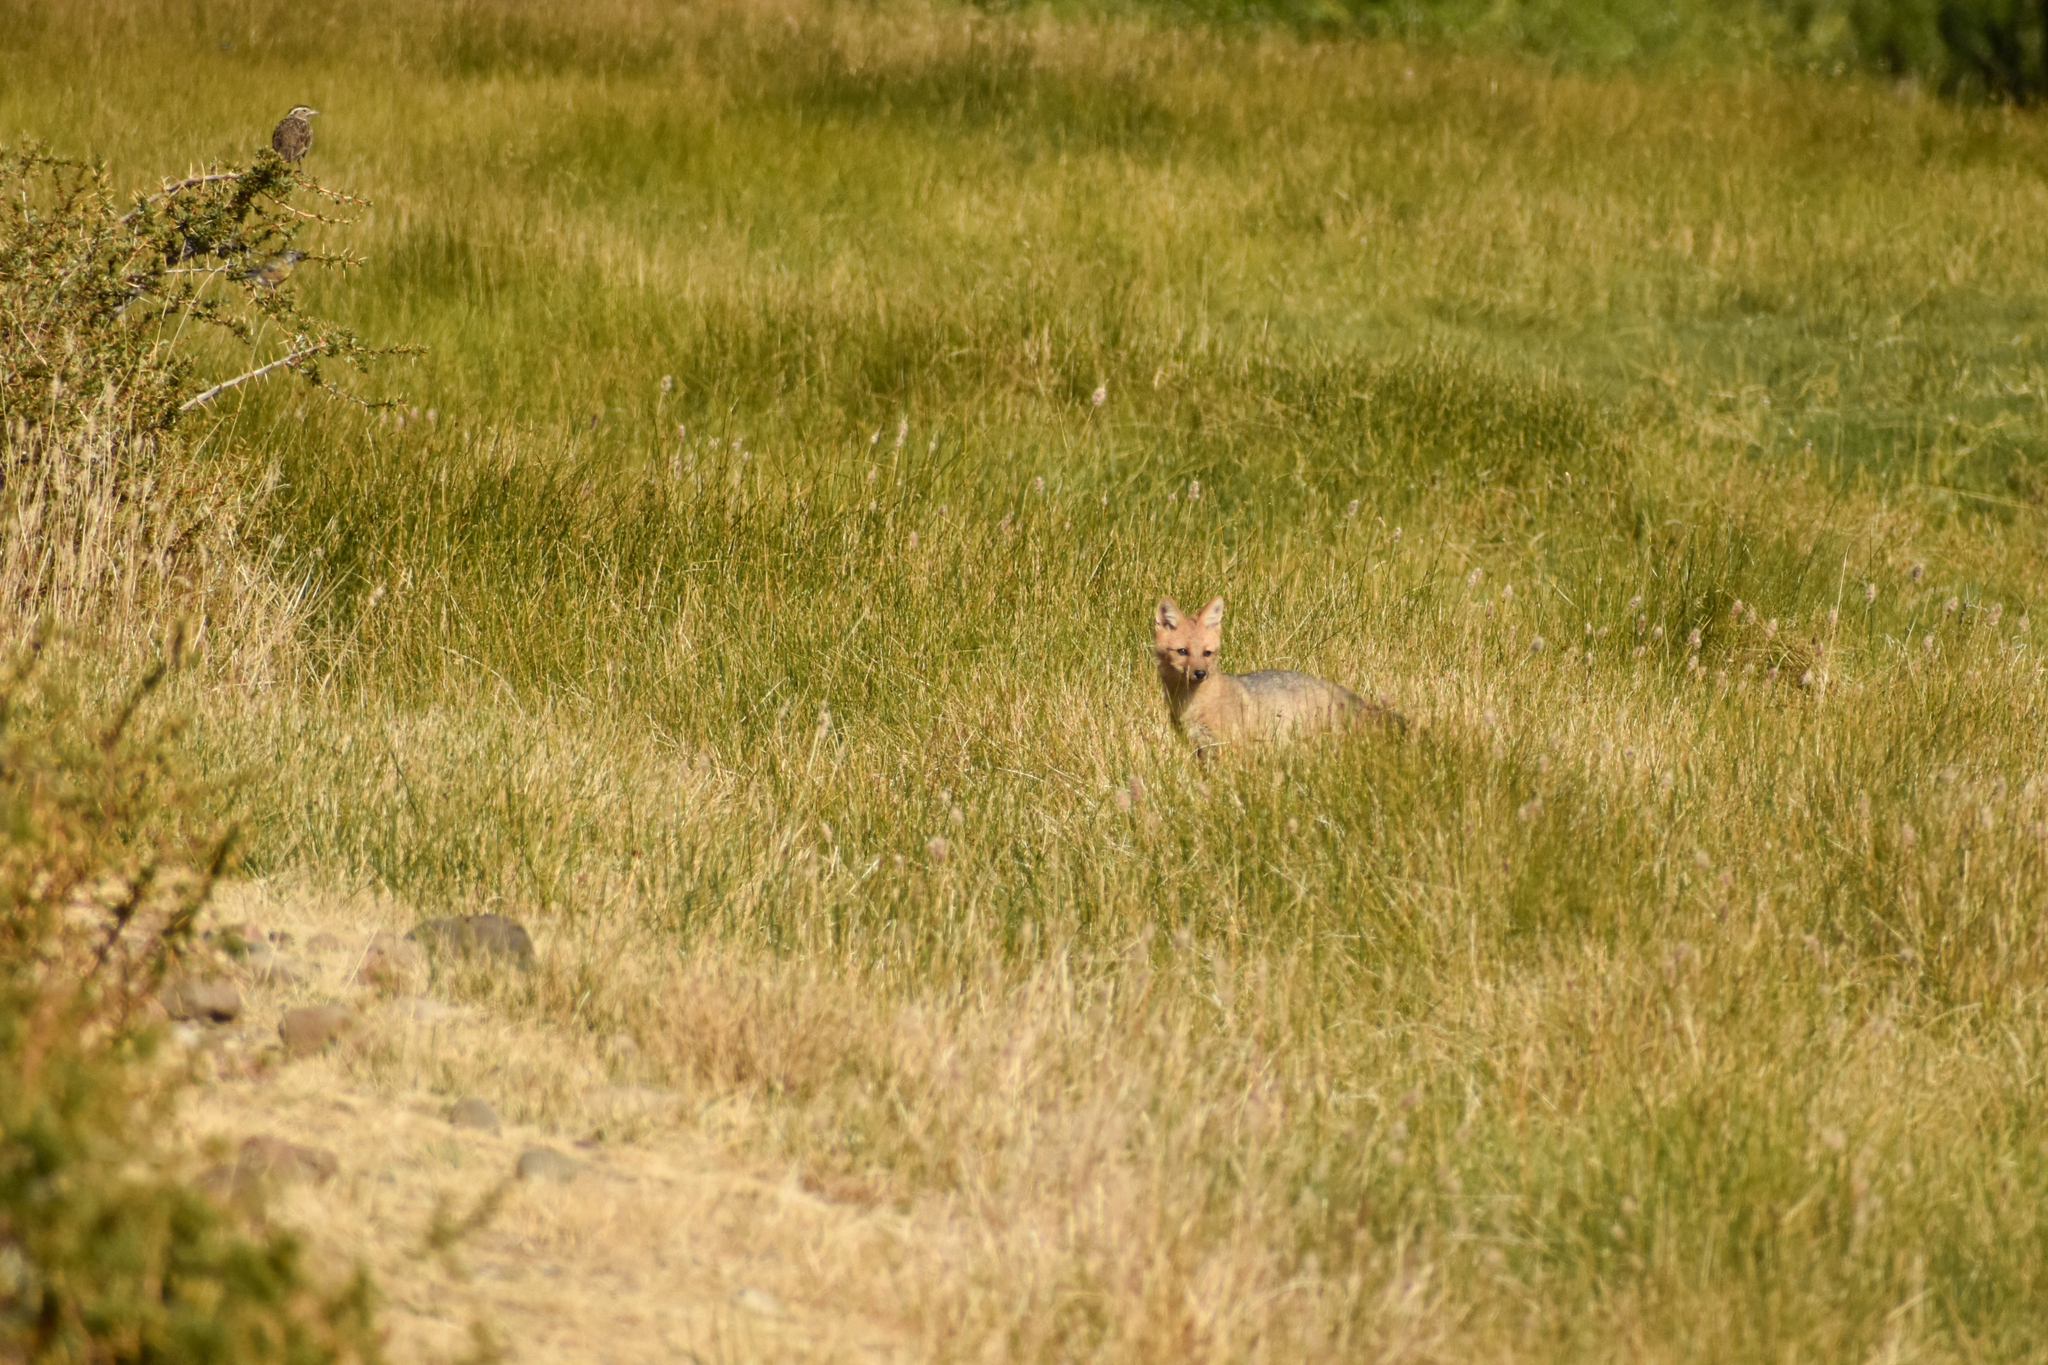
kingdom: Animalia
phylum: Chordata
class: Mammalia
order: Carnivora
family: Canidae
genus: Lycalopex
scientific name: Lycalopex culpaeus
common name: Culpeo
